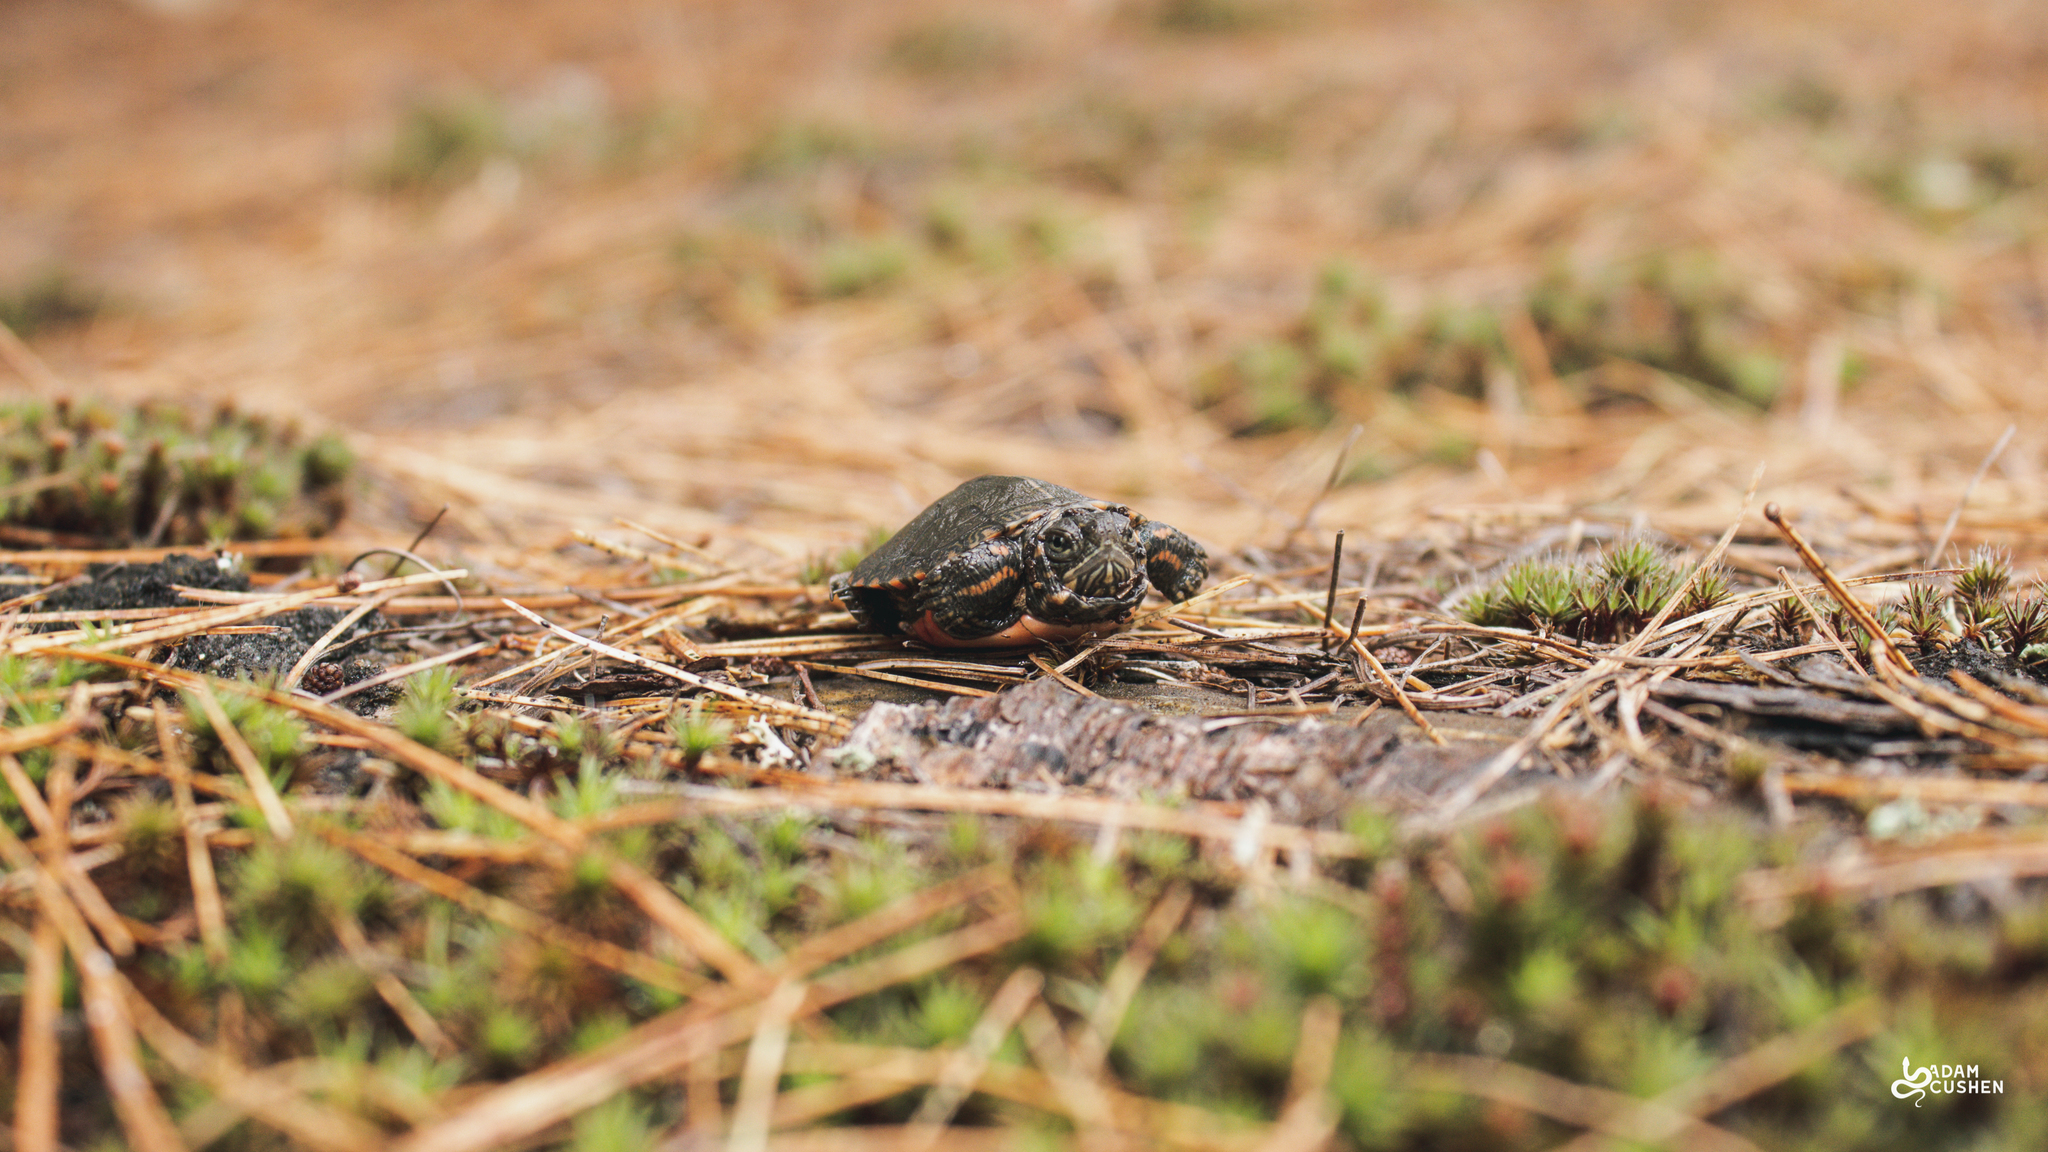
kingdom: Animalia
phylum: Chordata
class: Testudines
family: Emydidae
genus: Chrysemys
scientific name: Chrysemys picta
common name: Painted turtle
